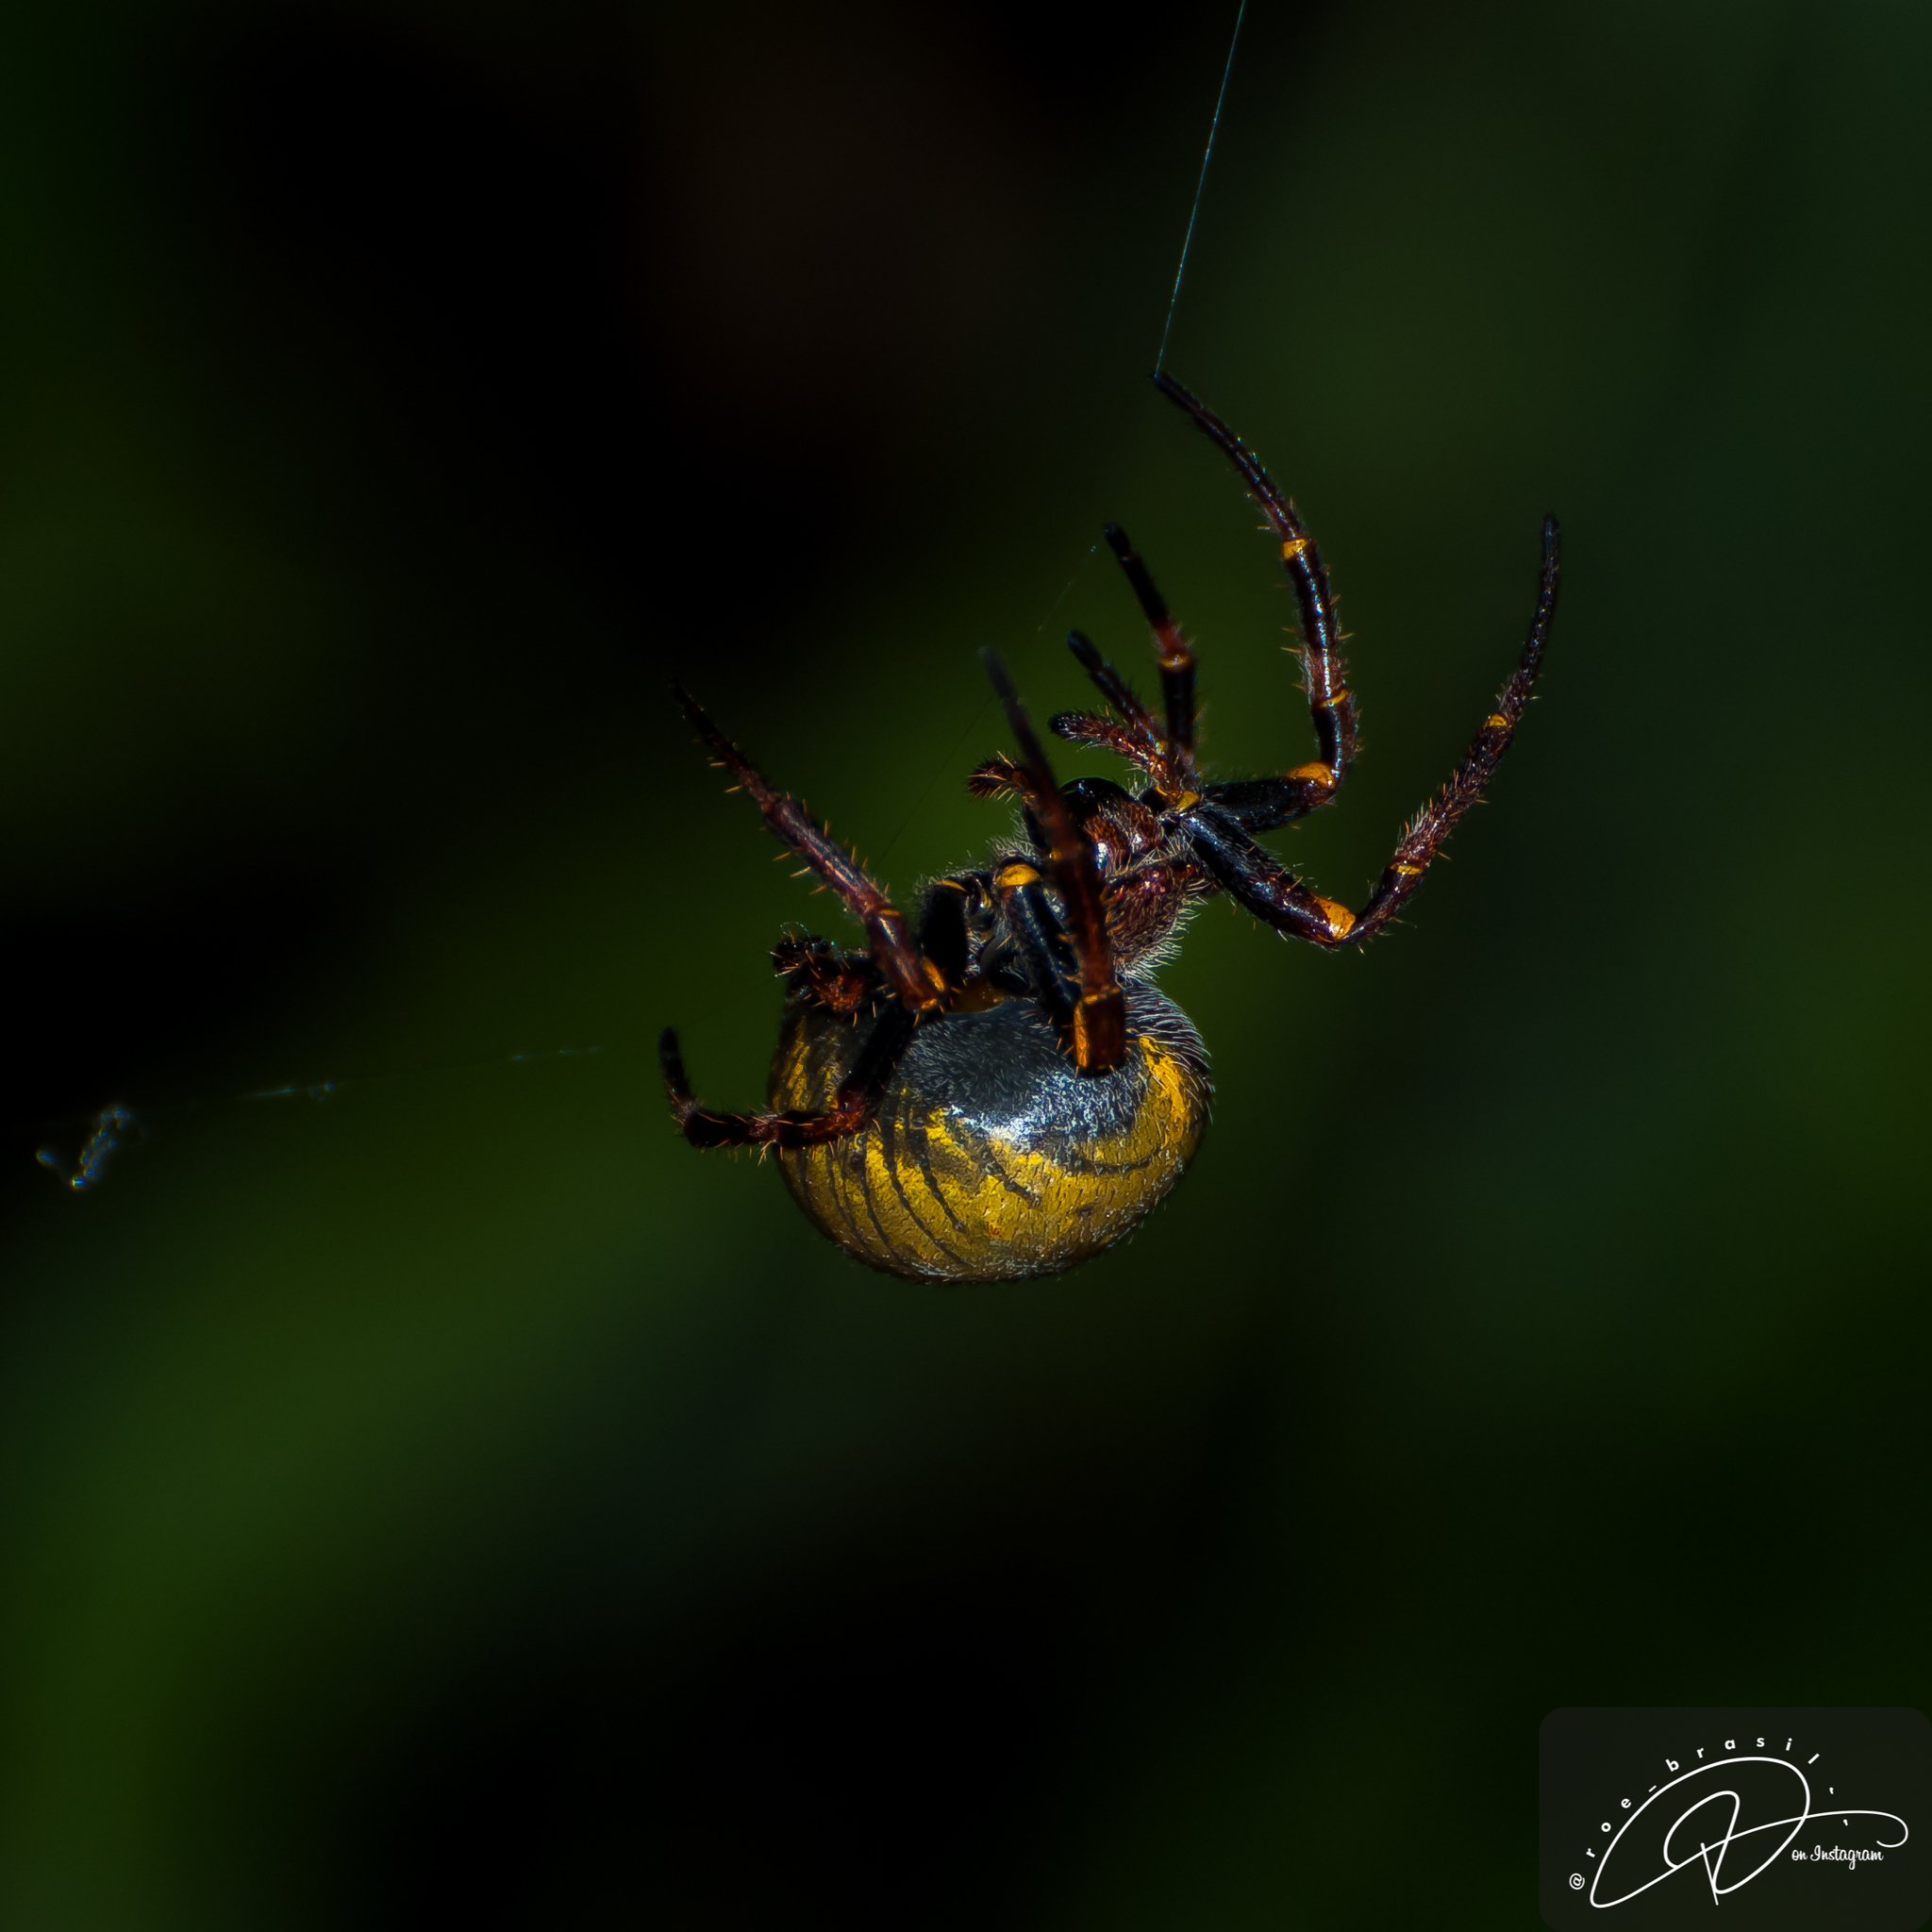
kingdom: Animalia
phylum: Arthropoda
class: Arachnida
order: Araneae
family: Araneidae
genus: Parawixia
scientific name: Parawixia bistriata
